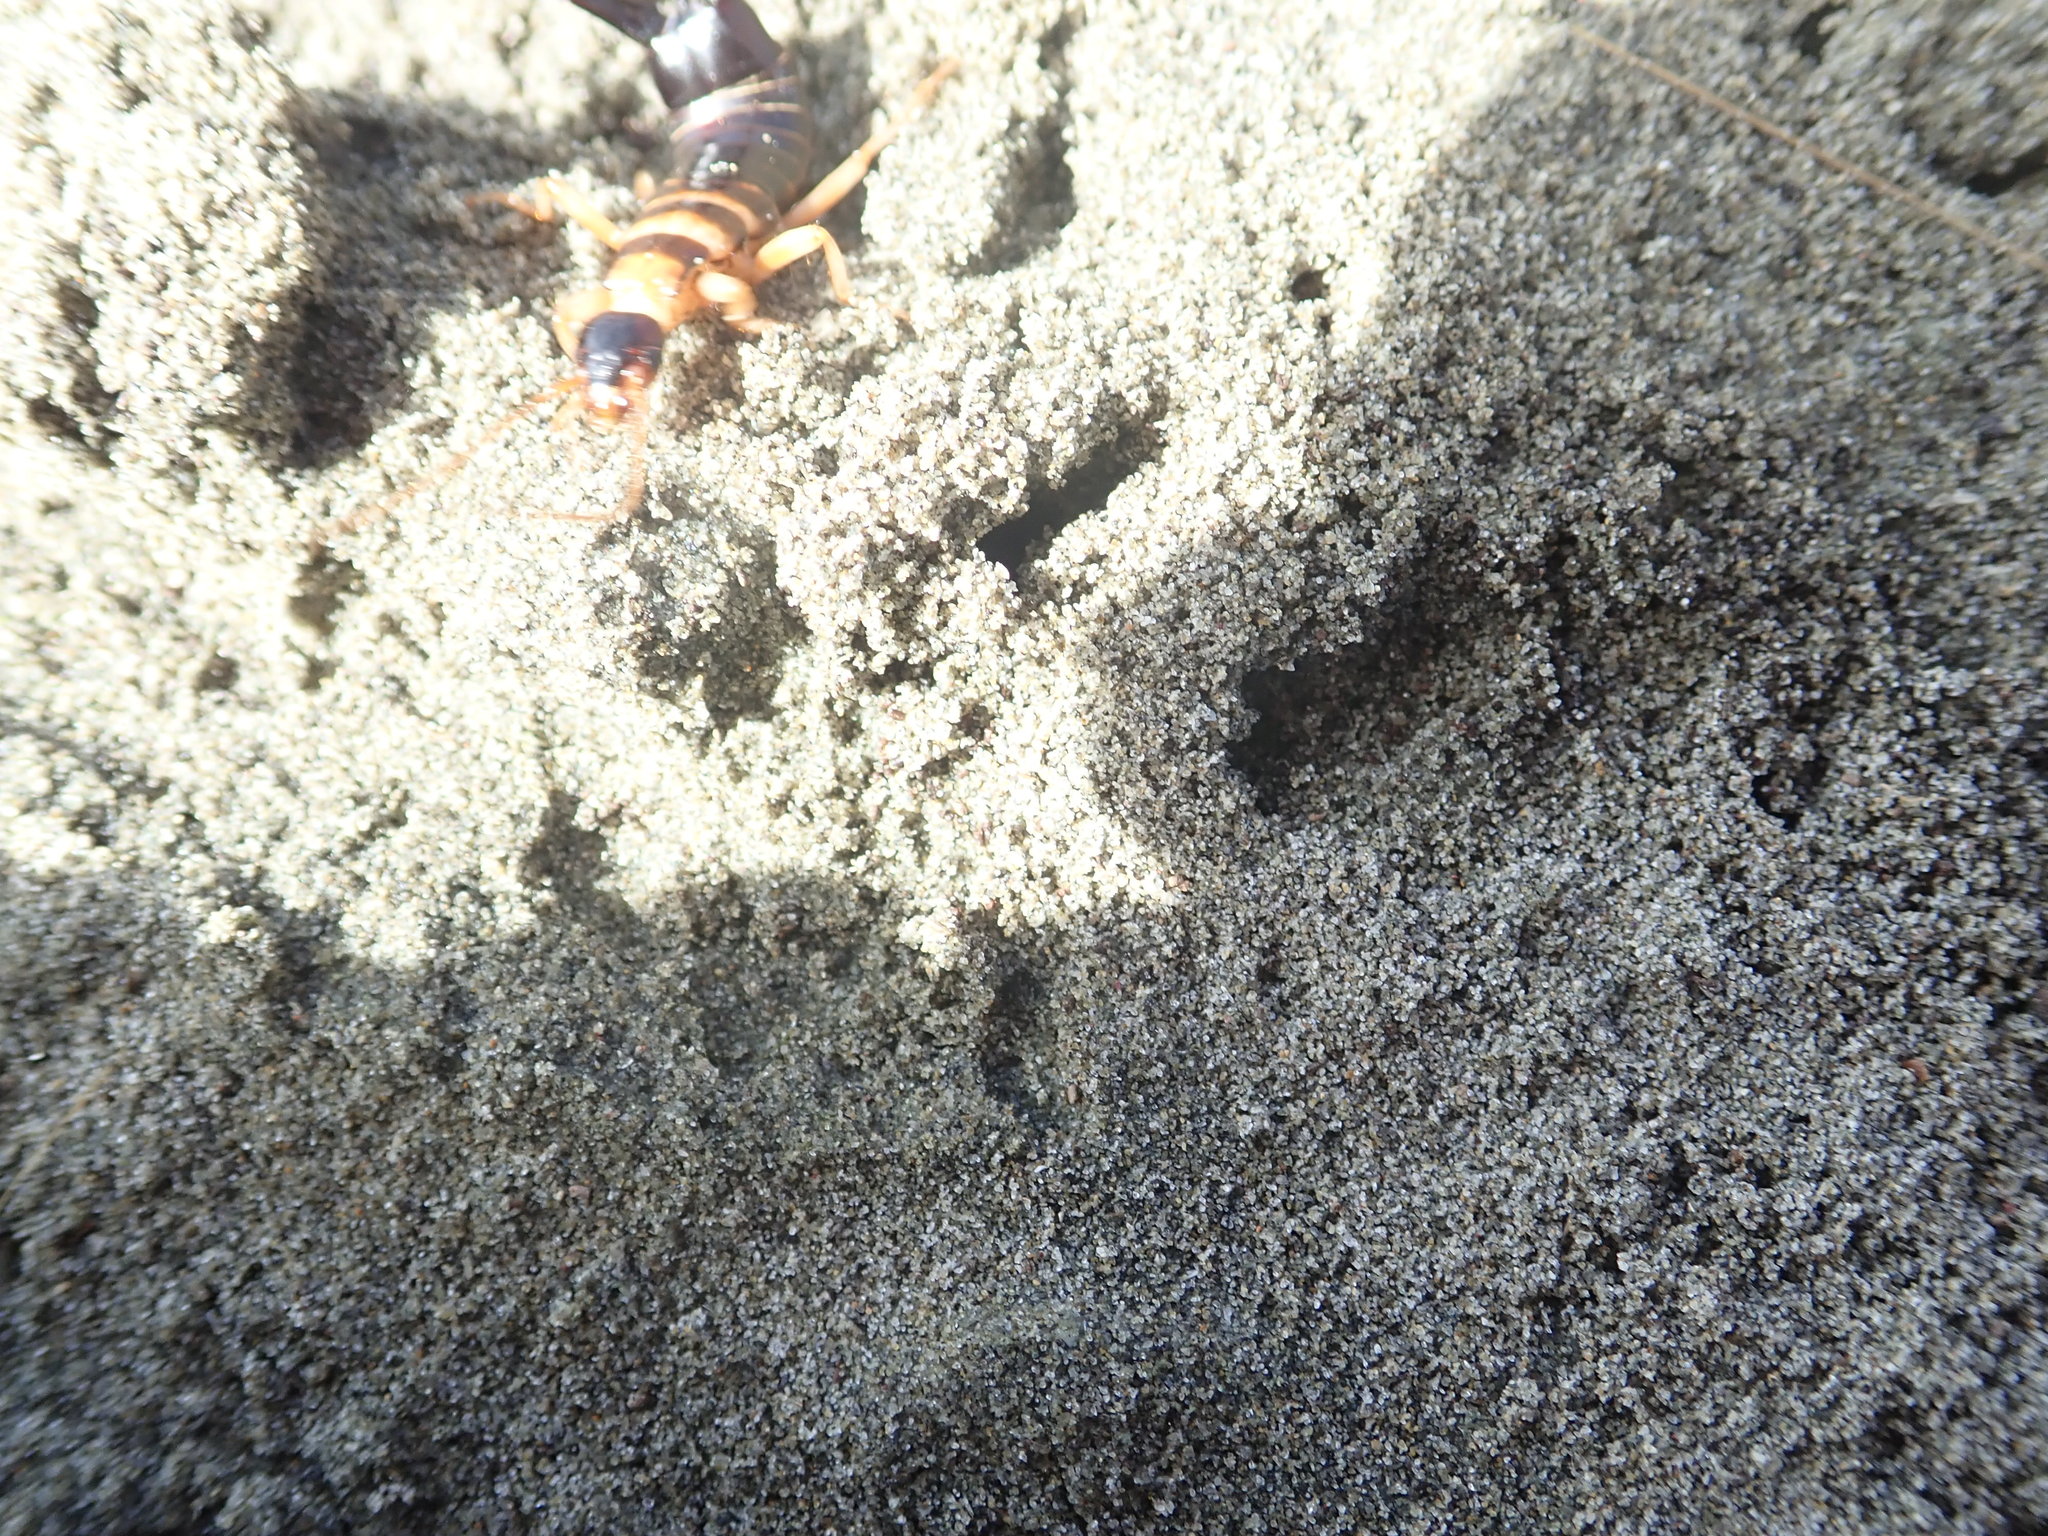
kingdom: Animalia
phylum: Arthropoda
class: Insecta
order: Dermaptera
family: Anisolabididae
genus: Anisolabis
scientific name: Anisolabis littorea
